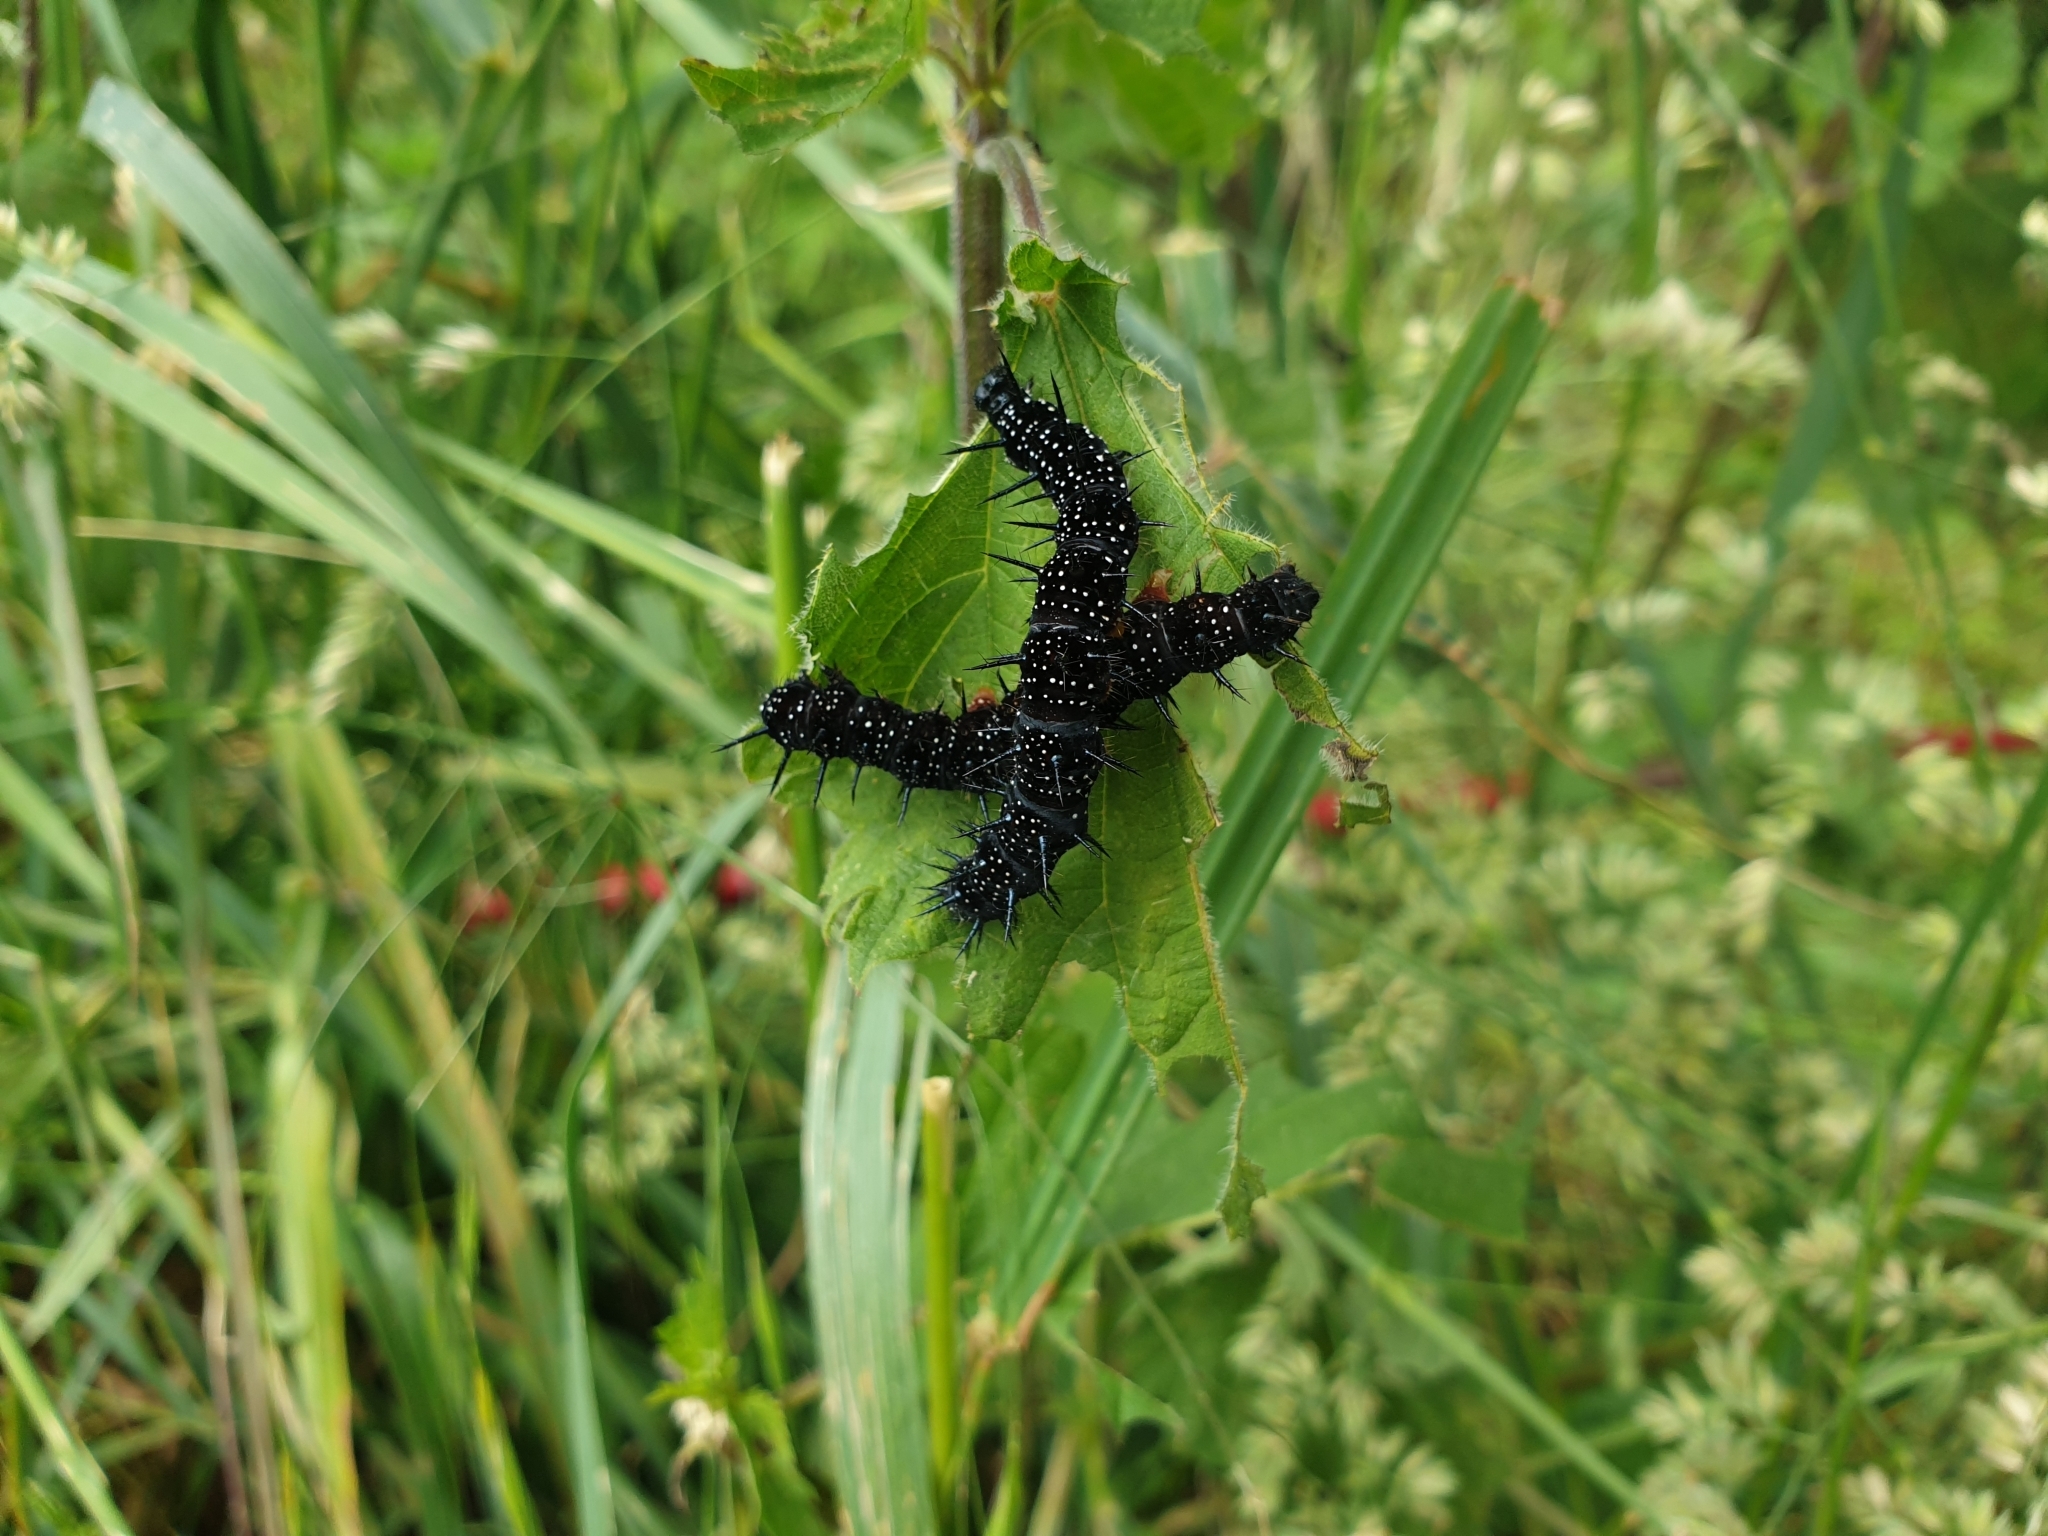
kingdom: Animalia
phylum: Arthropoda
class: Insecta
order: Lepidoptera
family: Nymphalidae
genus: Aglais
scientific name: Aglais io
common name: Peacock
